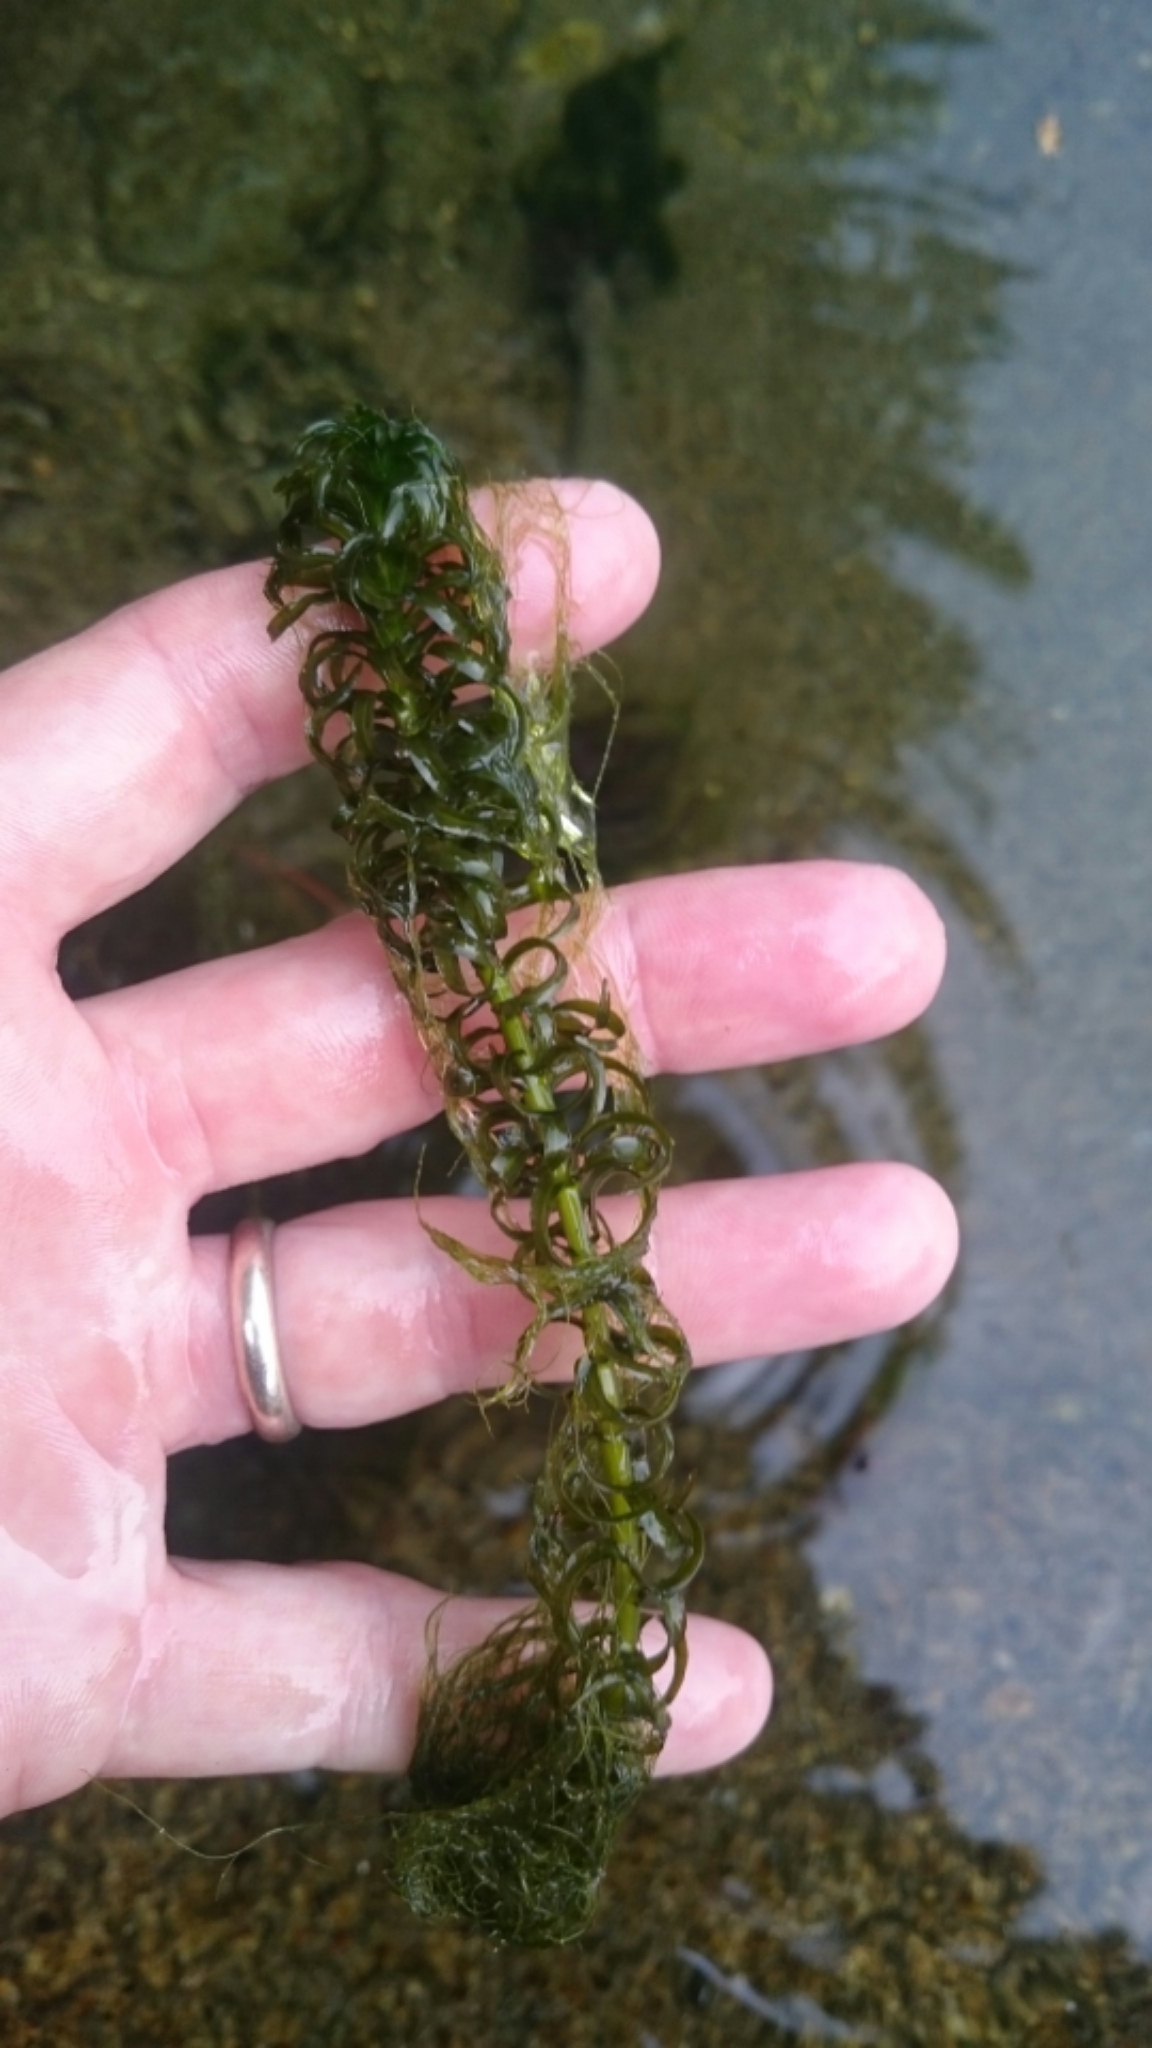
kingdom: Plantae
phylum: Tracheophyta
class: Liliopsida
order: Alismatales
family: Hydrocharitaceae
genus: Lagarosiphon
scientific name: Lagarosiphon major
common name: Curly waterweed
